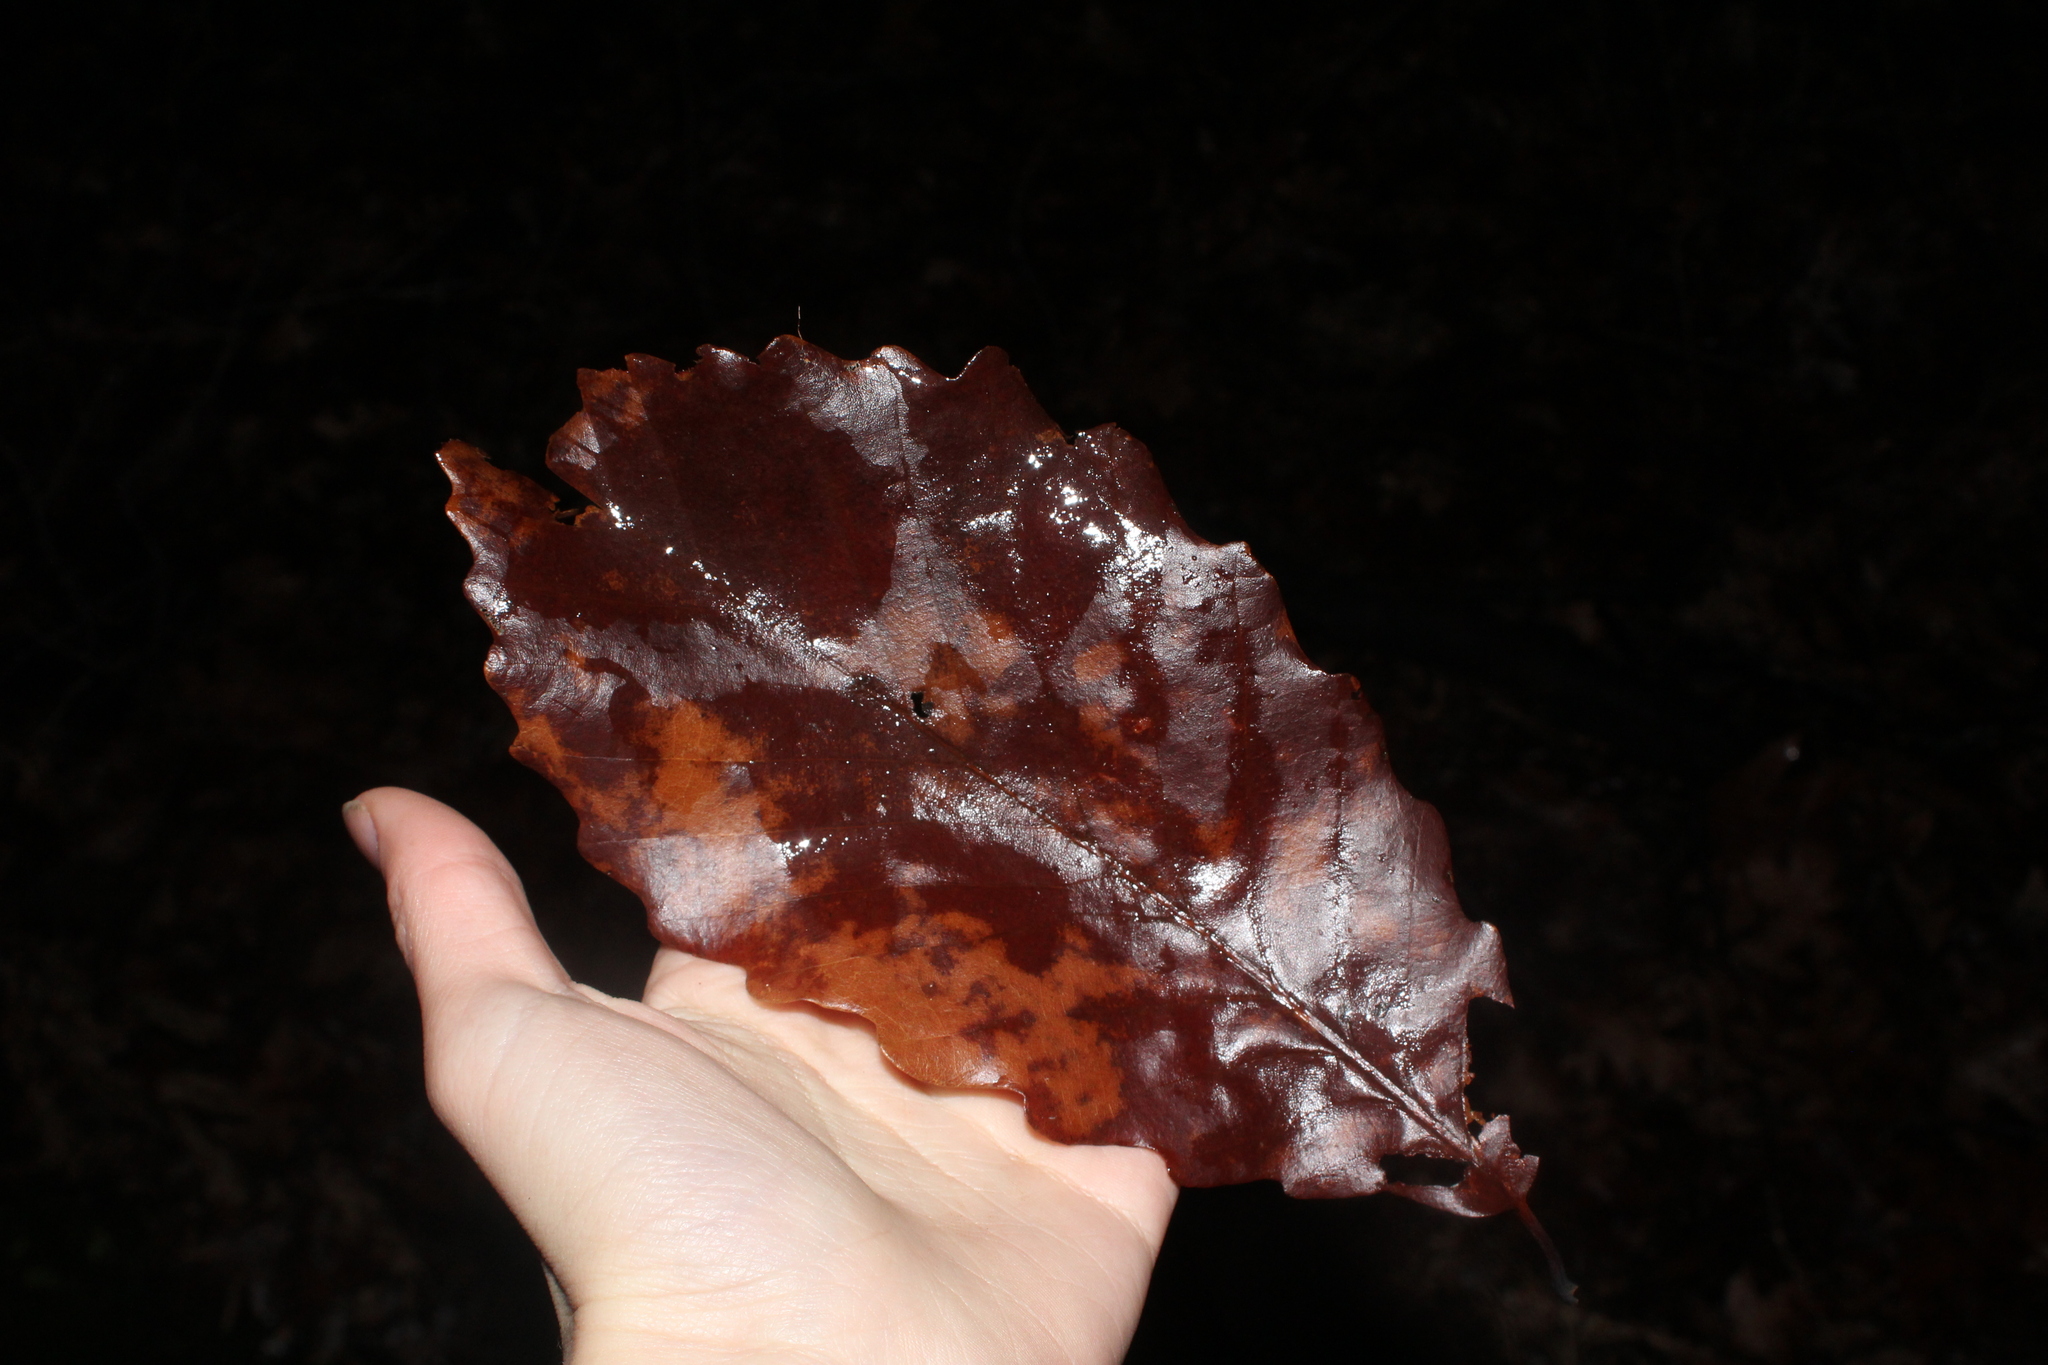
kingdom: Plantae
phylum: Tracheophyta
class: Magnoliopsida
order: Fagales
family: Fagaceae
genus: Quercus
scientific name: Quercus montana
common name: Chestnut oak
